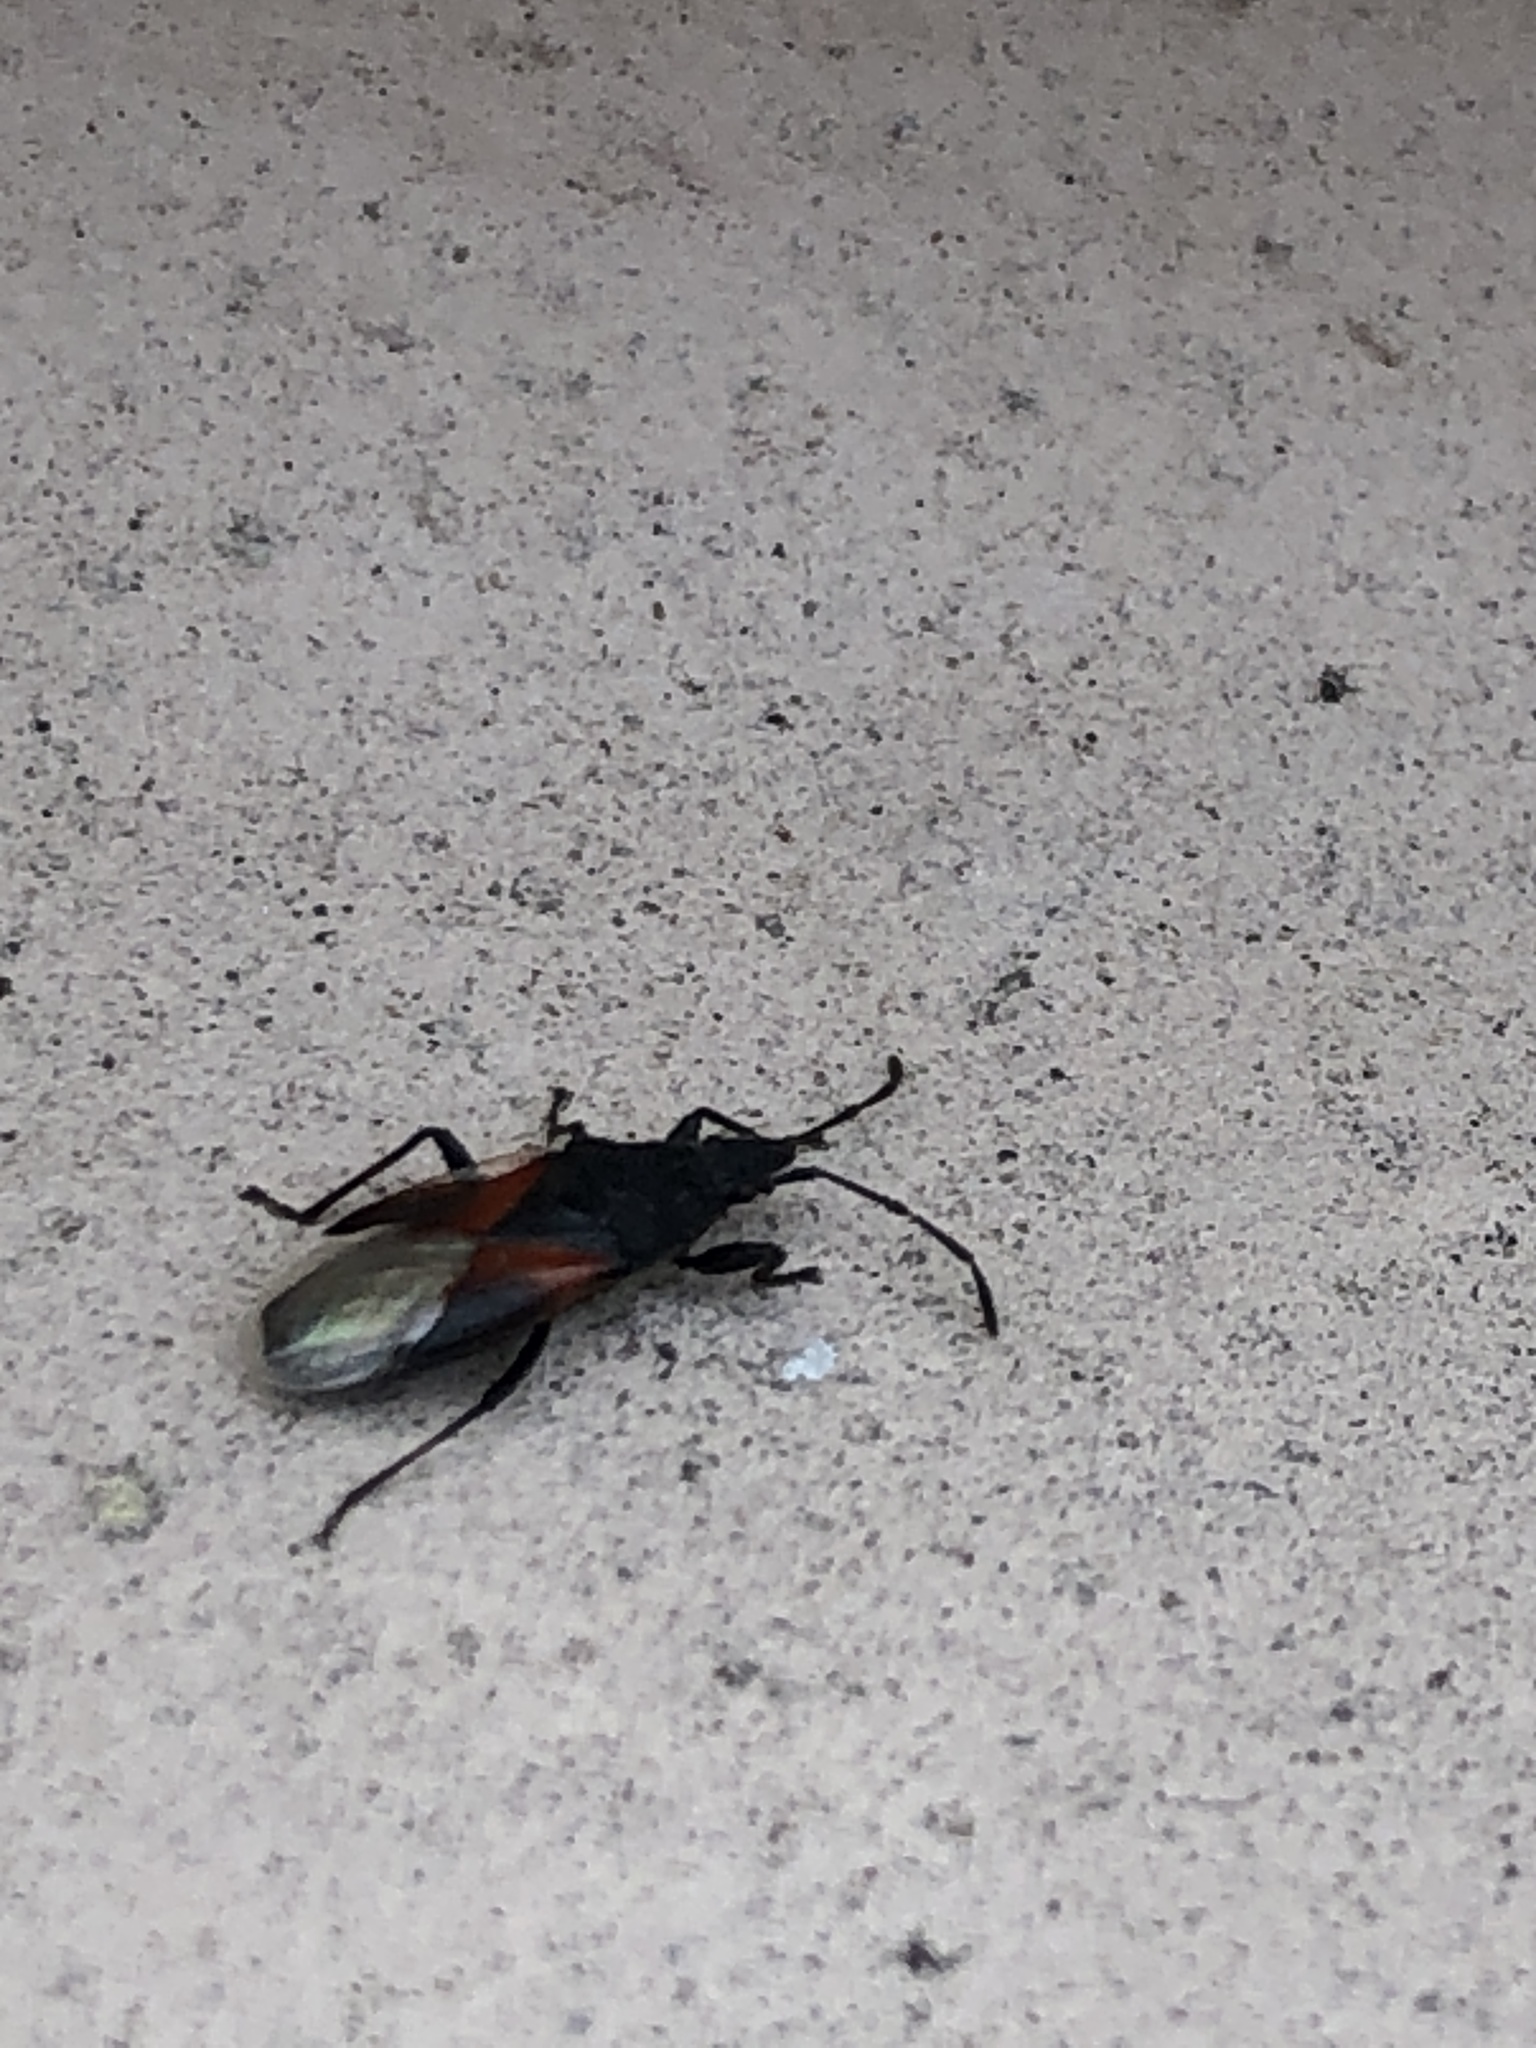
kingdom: Animalia
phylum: Arthropoda
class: Insecta
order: Hemiptera
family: Oxycarenidae
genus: Oxycarenus
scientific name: Oxycarenus lavaterae
